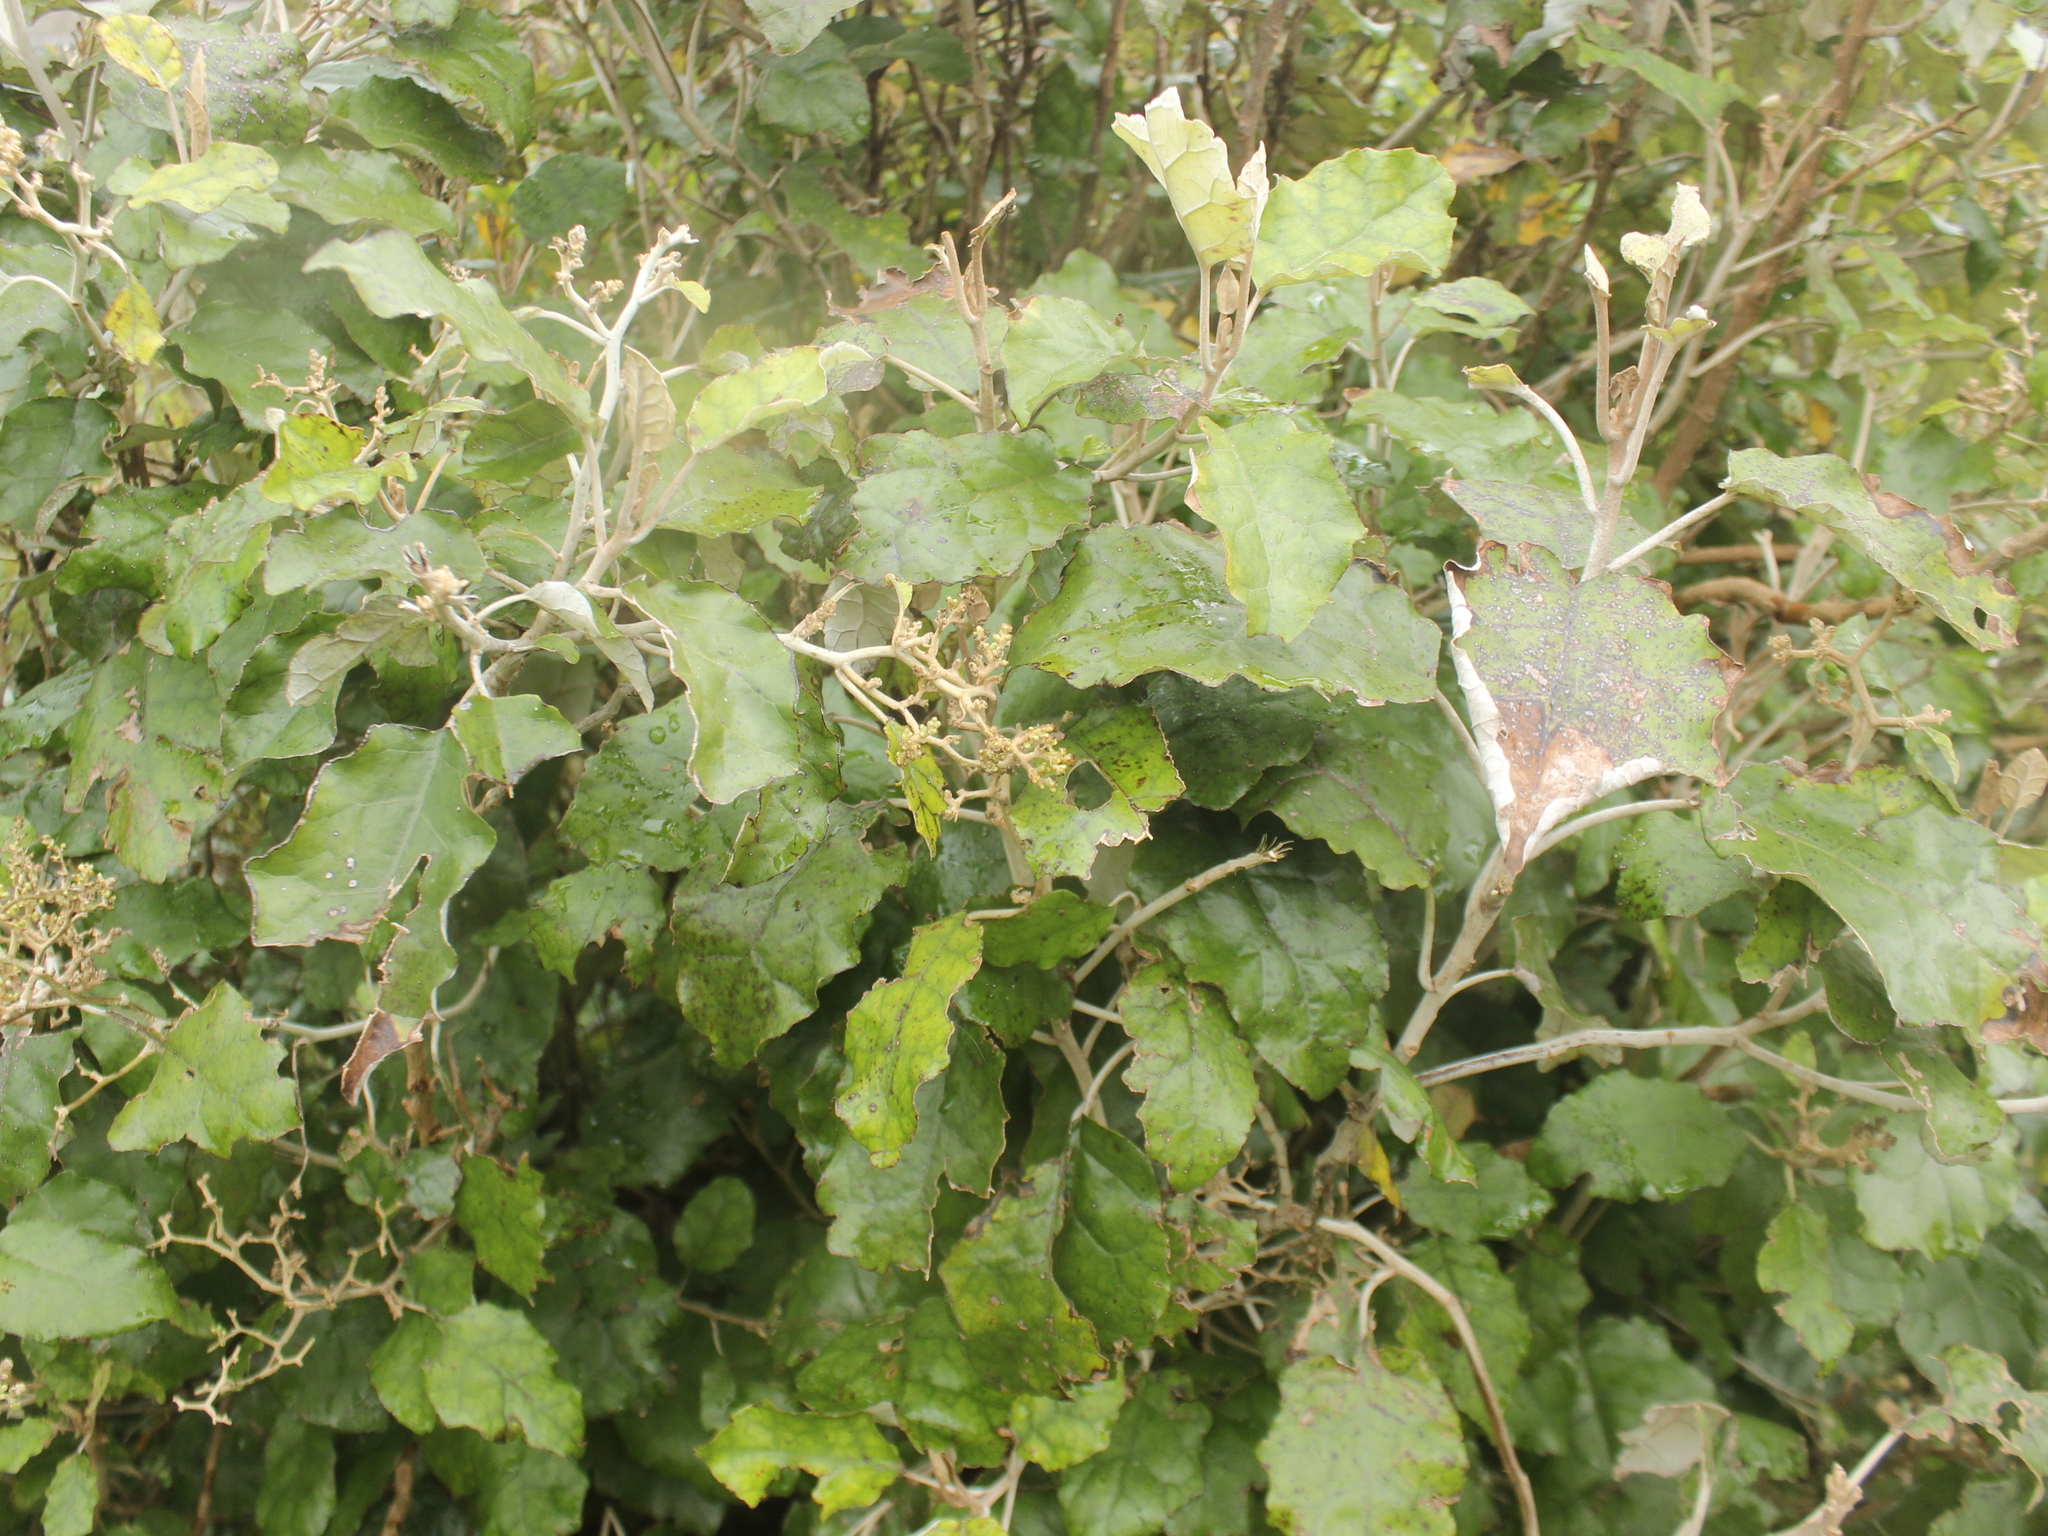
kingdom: Plantae
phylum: Tracheophyta
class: Magnoliopsida
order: Asterales
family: Asteraceae
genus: Brachyglottis
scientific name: Brachyglottis repanda
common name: Hedge ragwort
